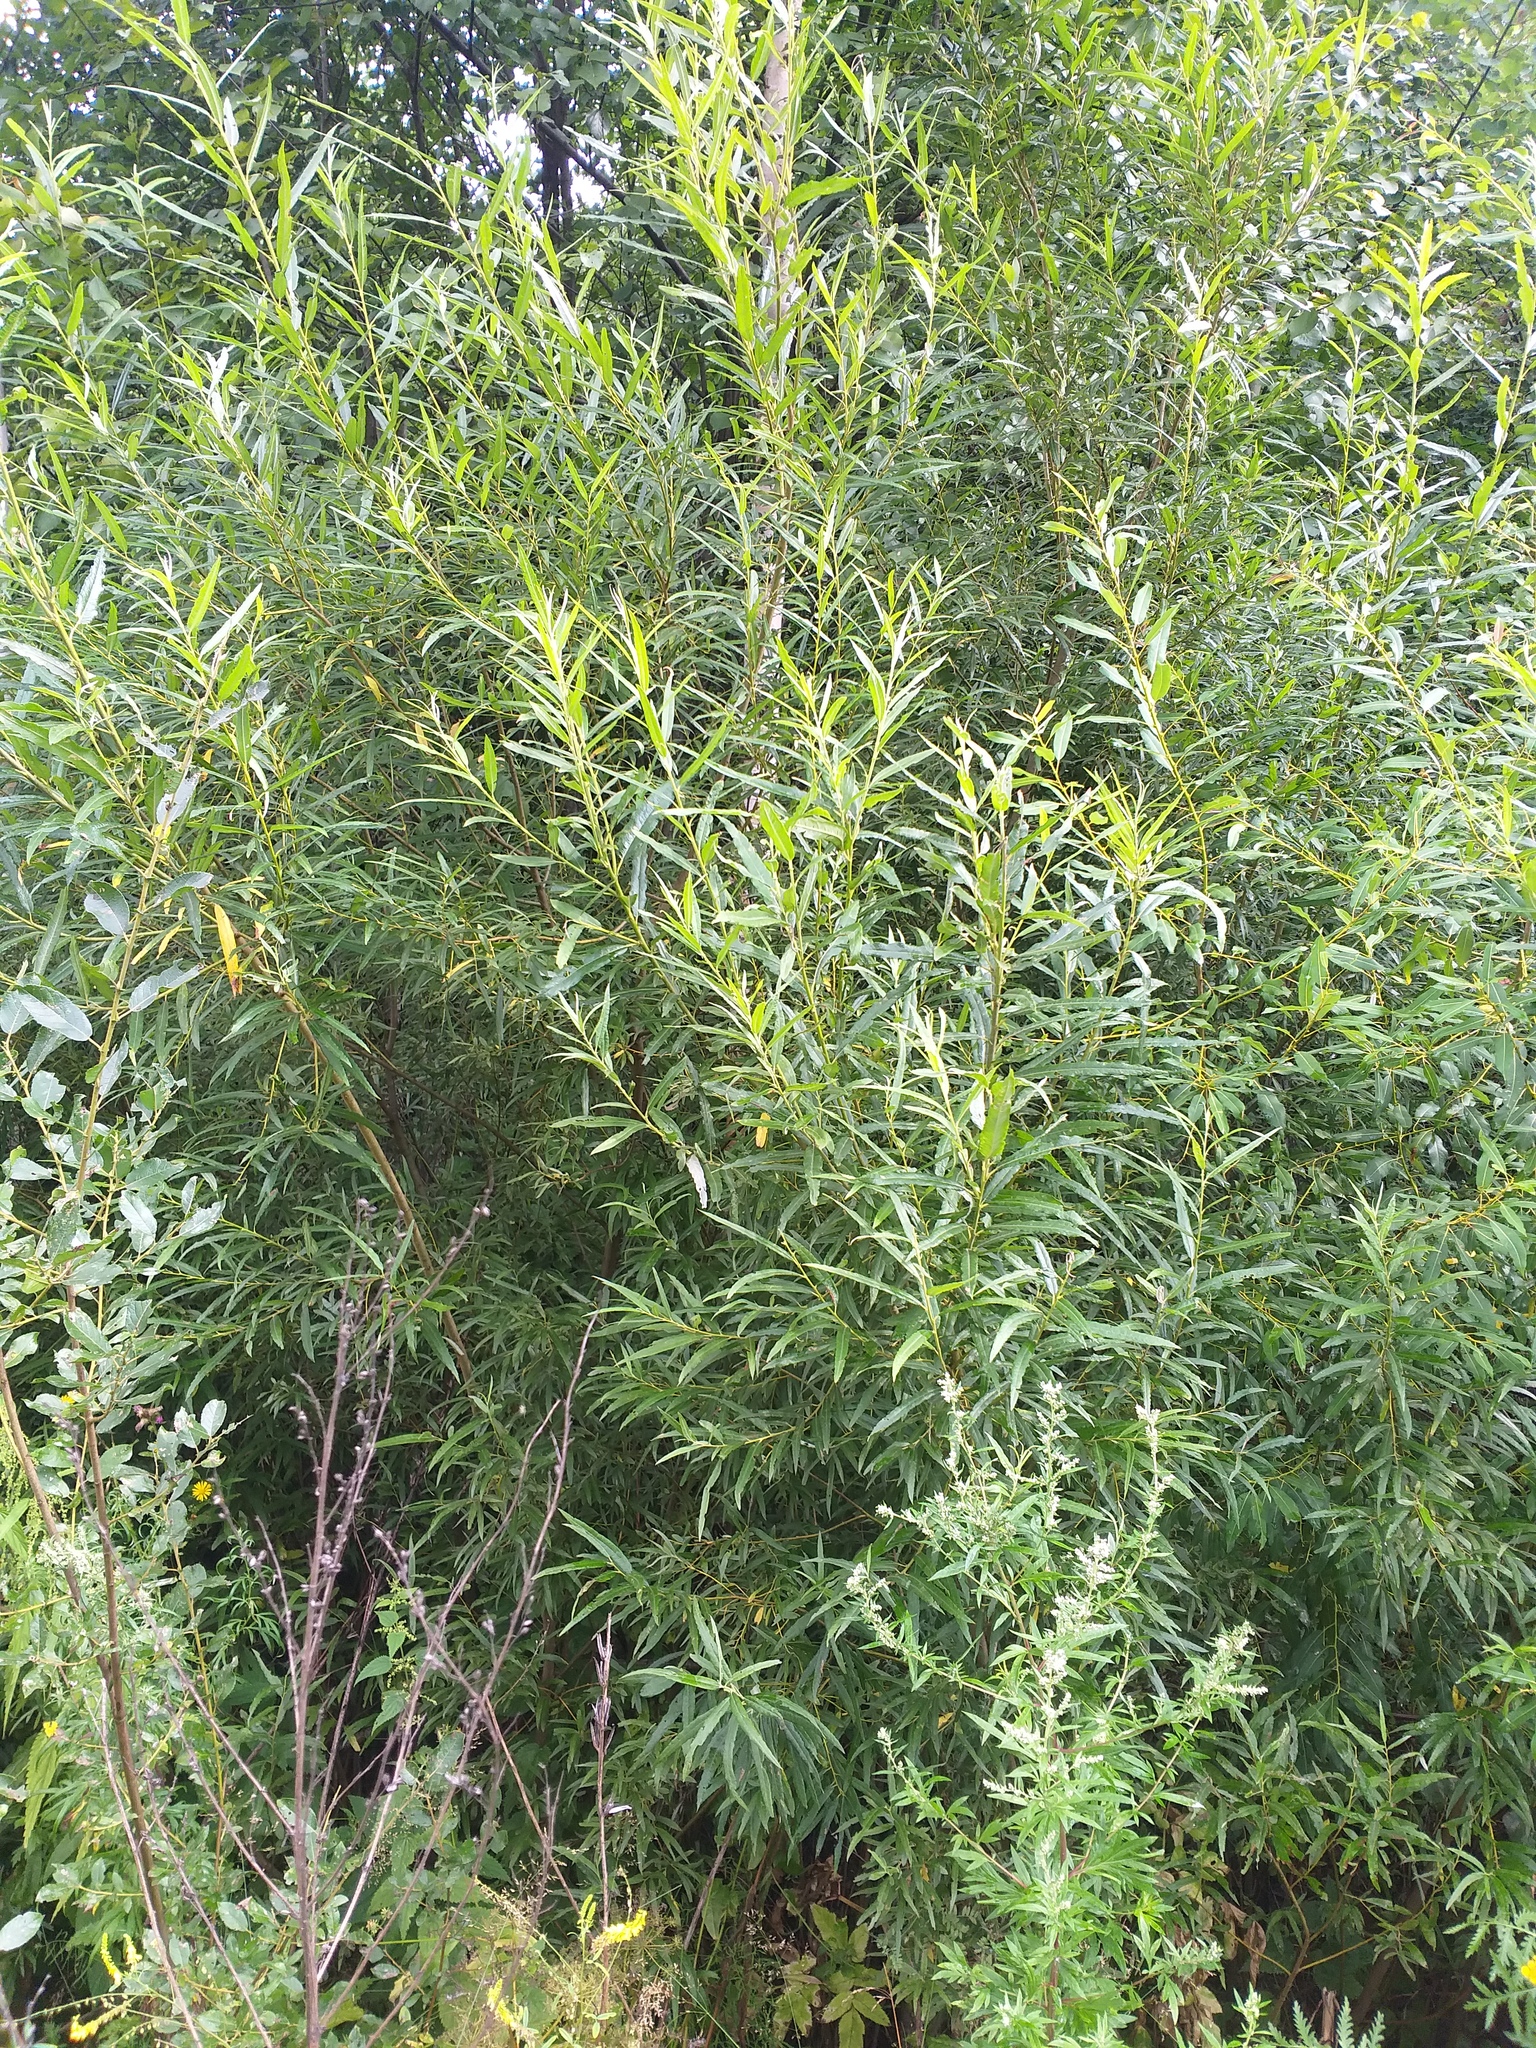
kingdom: Plantae
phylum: Tracheophyta
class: Magnoliopsida
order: Malpighiales
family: Salicaceae
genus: Salix
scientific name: Salix viminalis
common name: Osier
